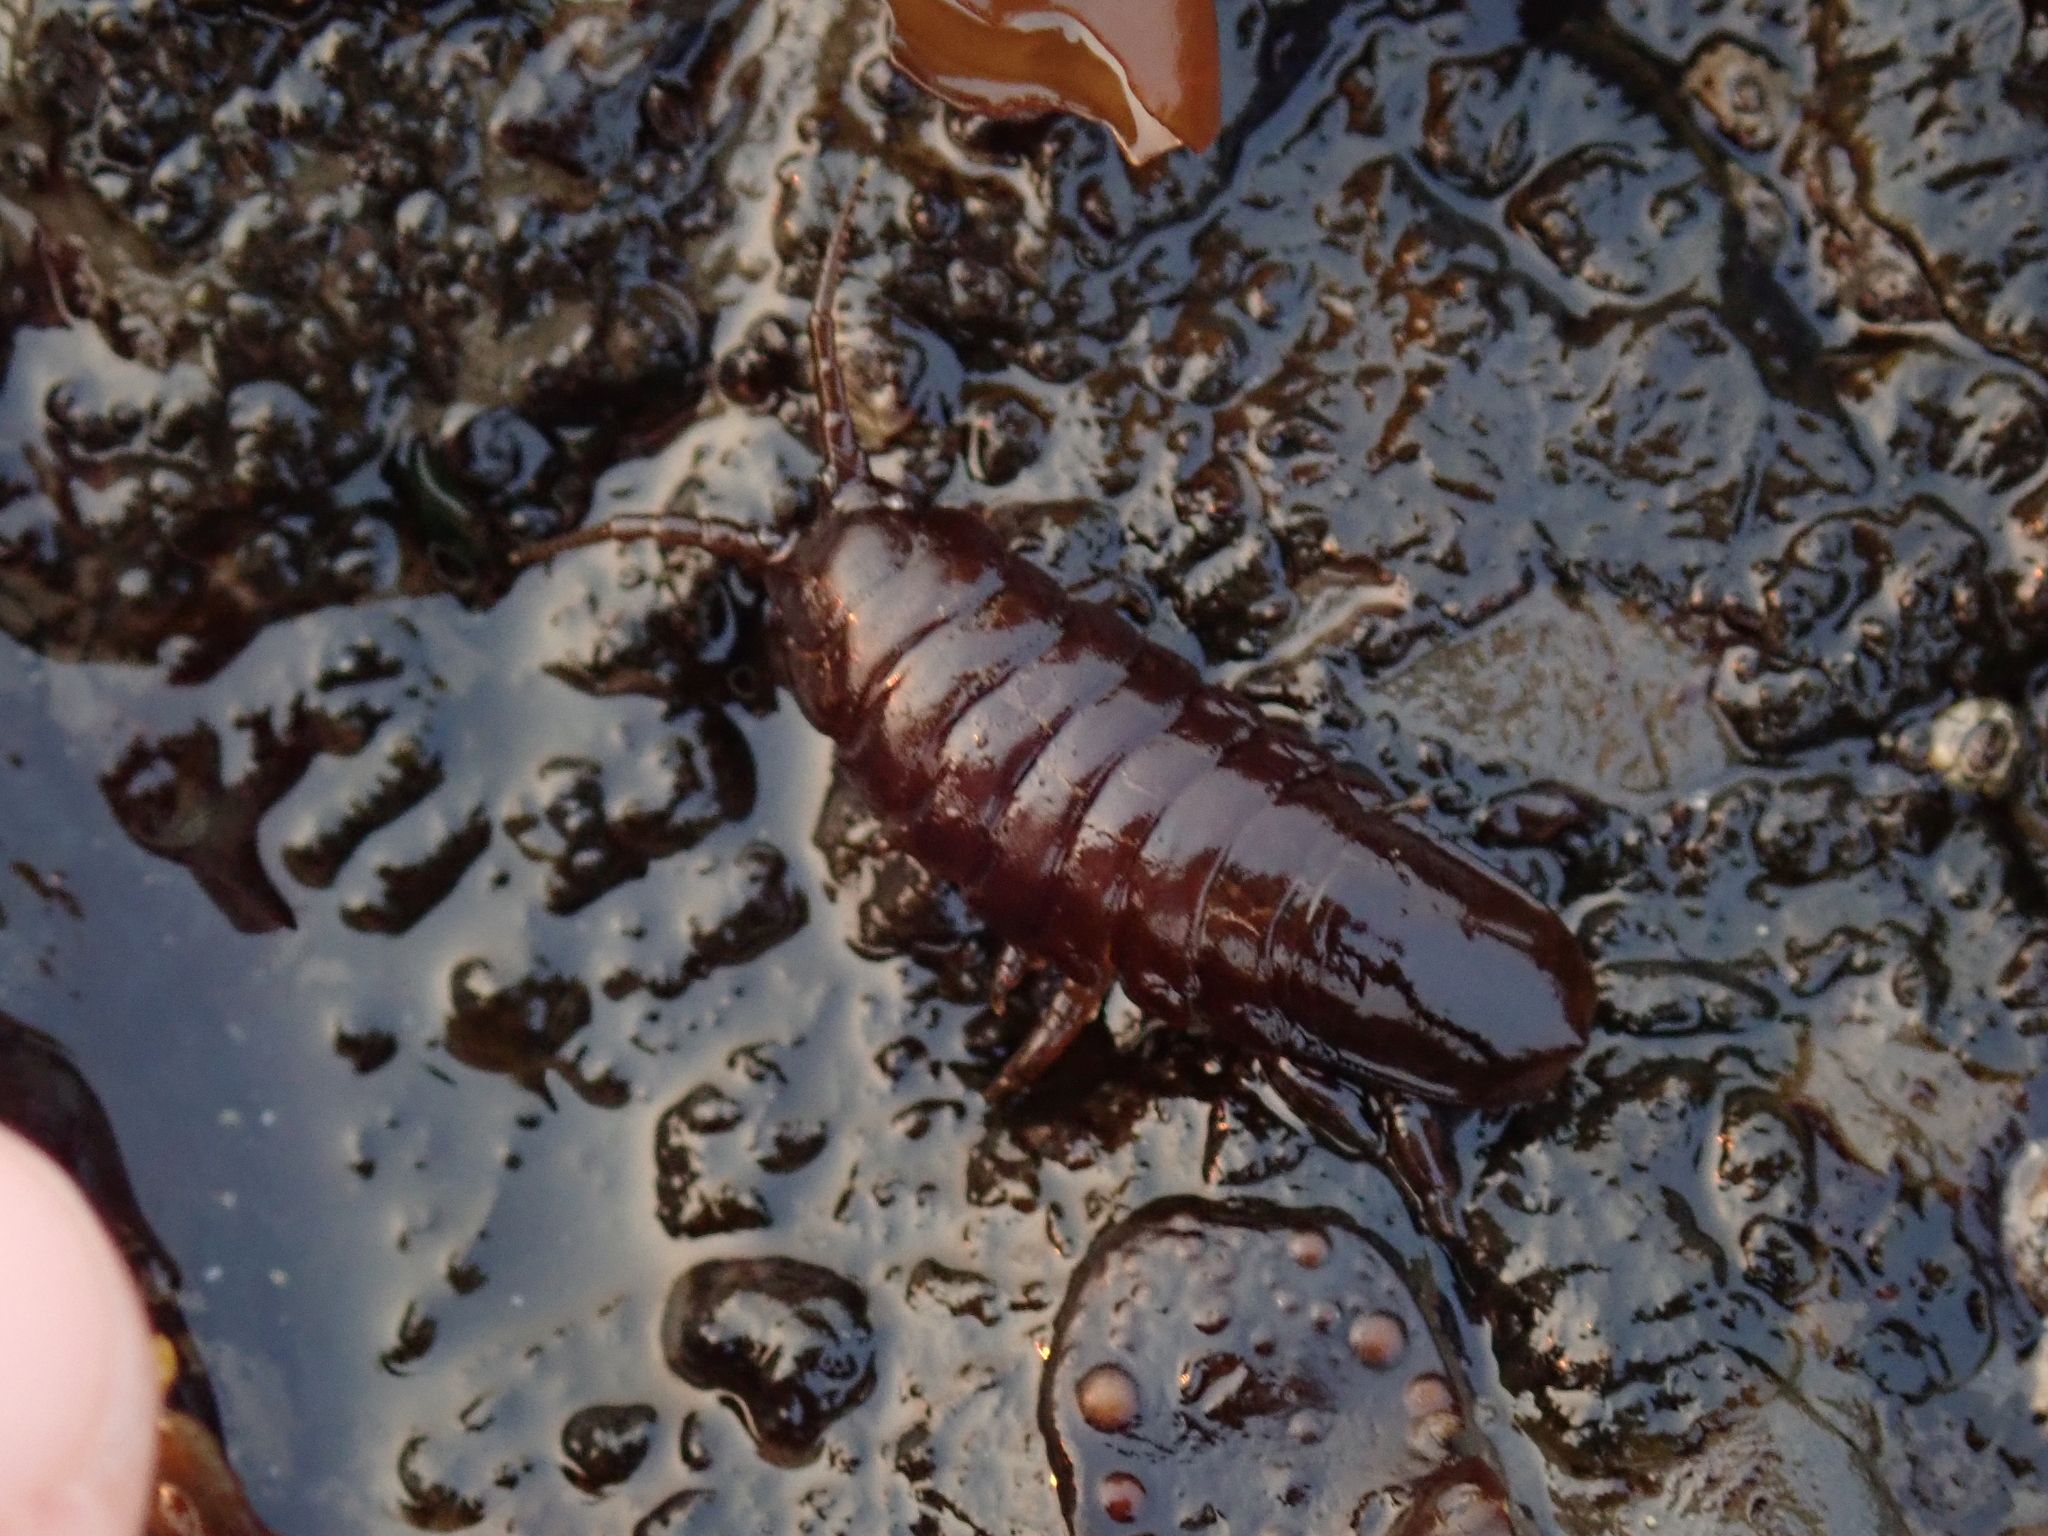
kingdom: Animalia
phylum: Arthropoda
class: Malacostraca
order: Isopoda
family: Idoteidae
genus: Pentidotea
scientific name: Pentidotea wosnesenskii
